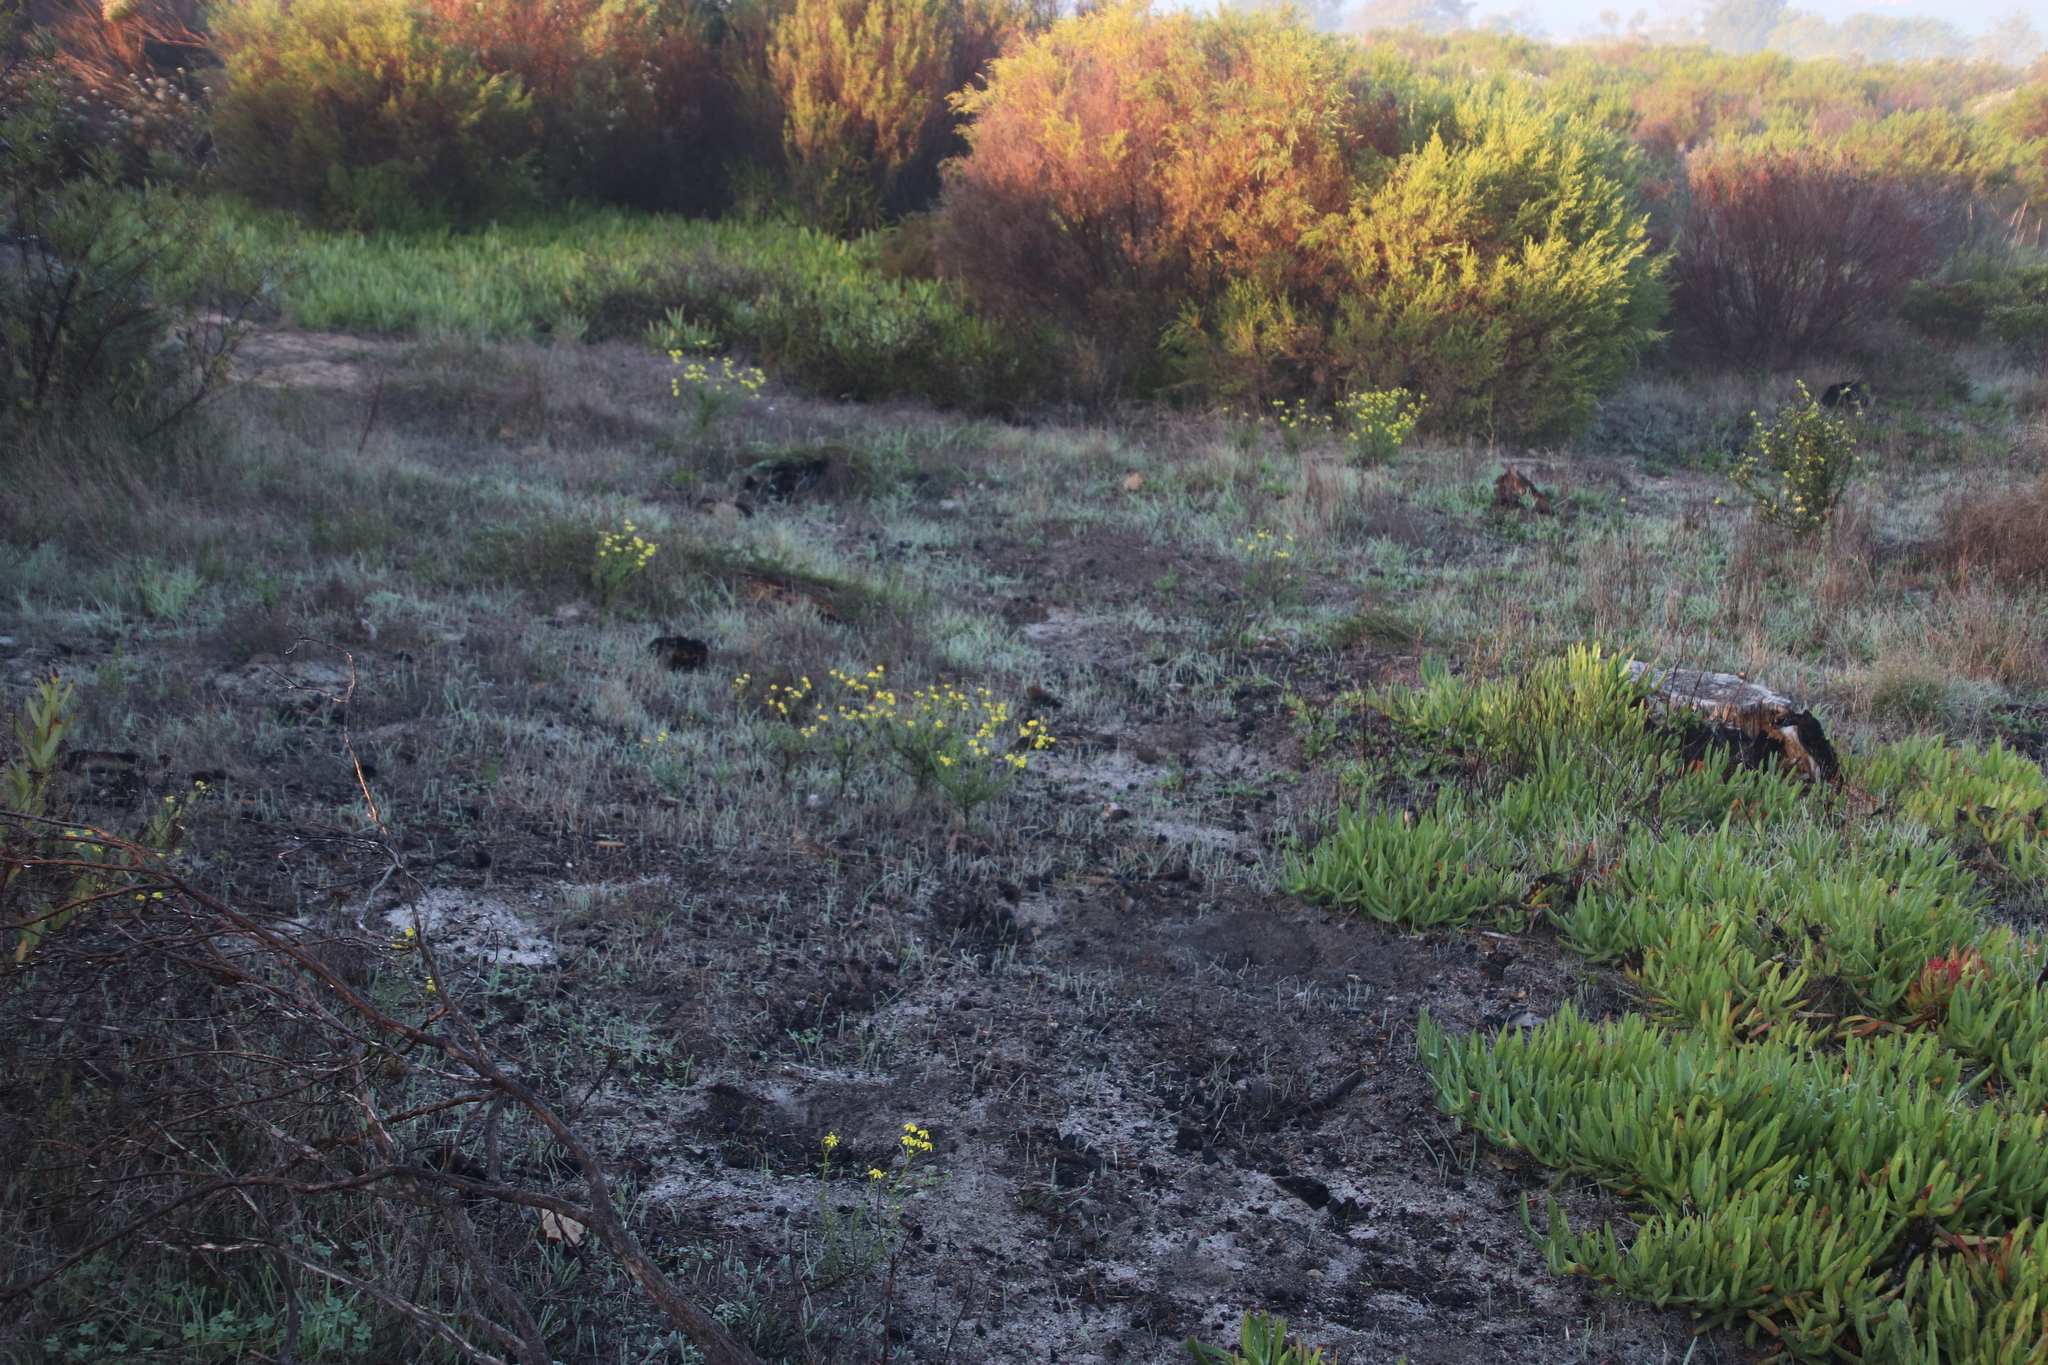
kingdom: Plantae
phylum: Tracheophyta
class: Magnoliopsida
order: Asterales
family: Asteraceae
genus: Senecio
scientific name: Senecio burchellii
